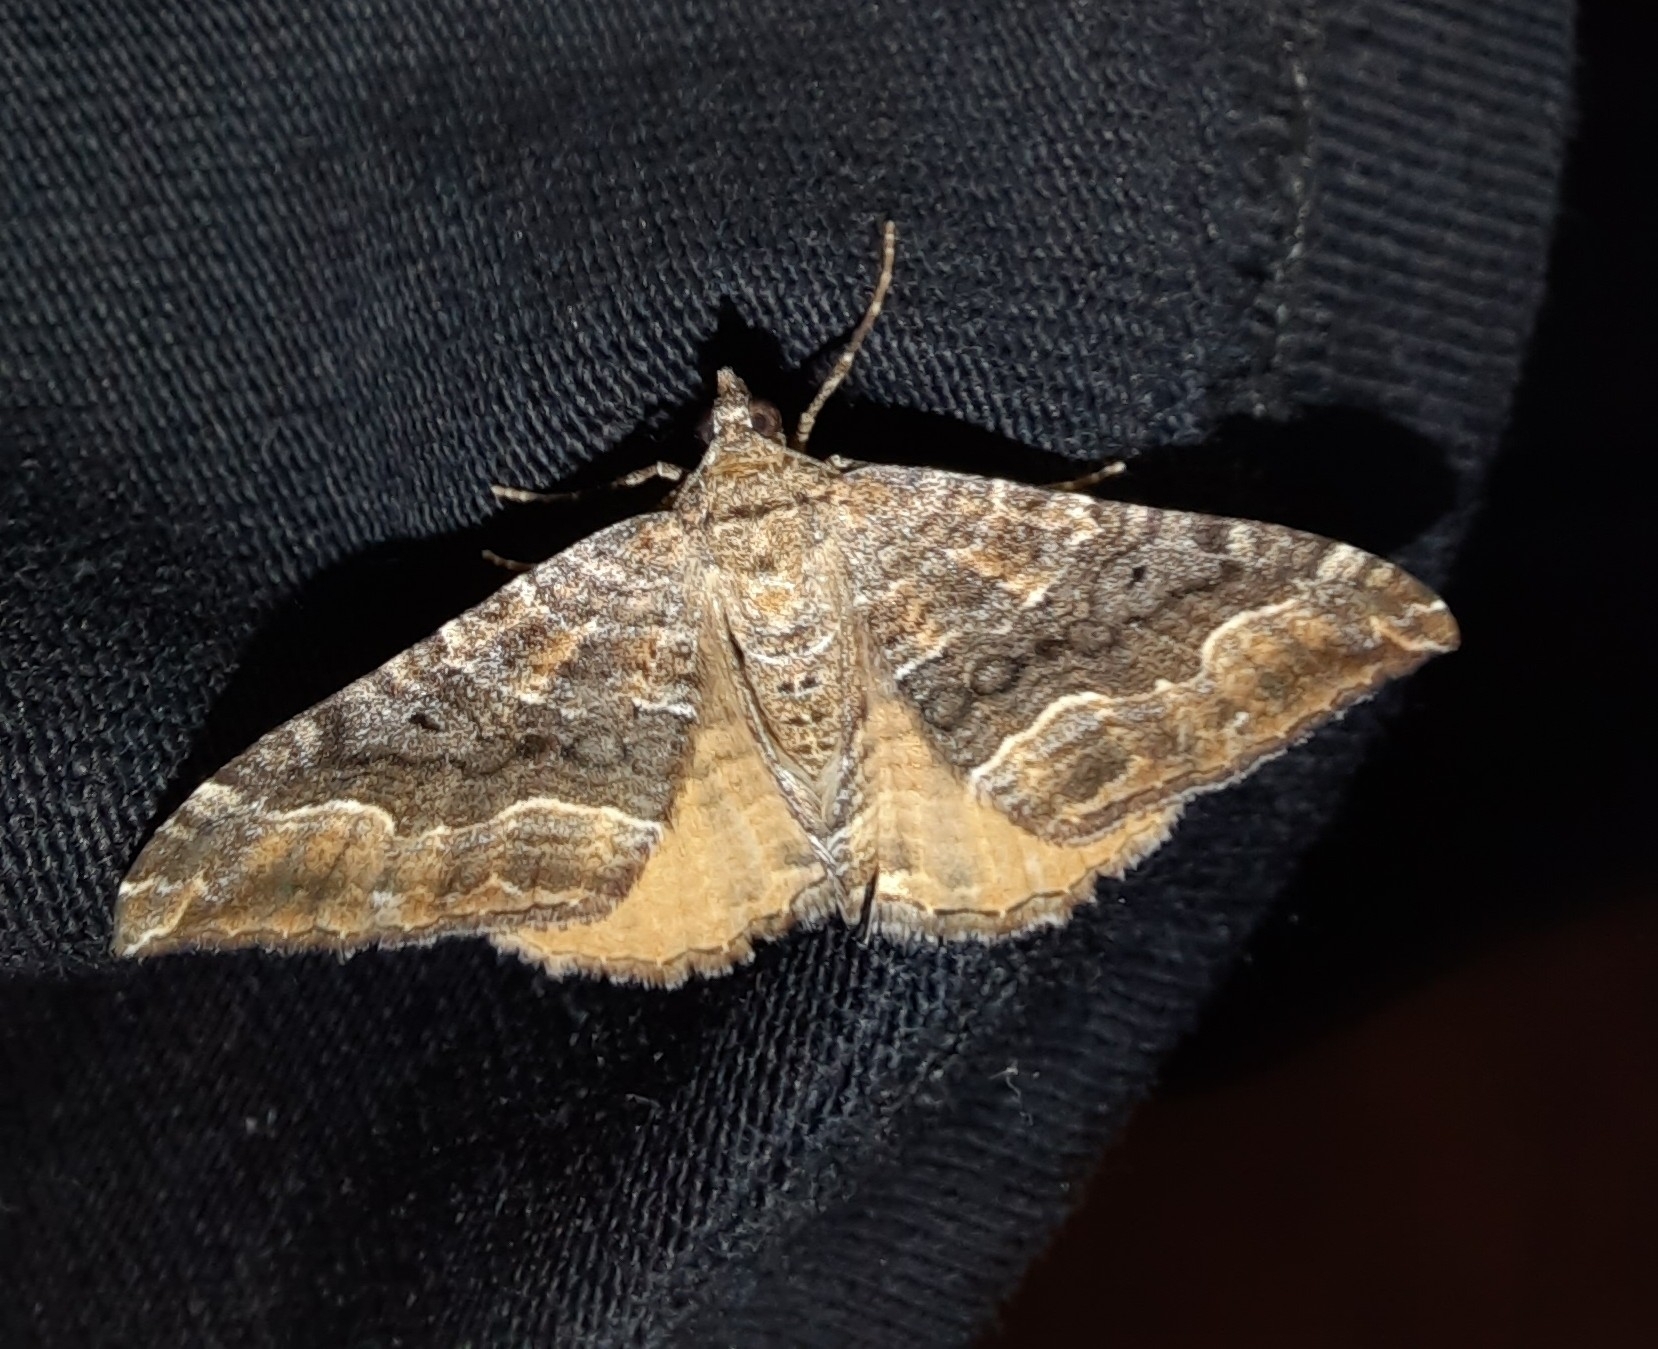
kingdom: Animalia
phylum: Arthropoda
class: Insecta
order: Lepidoptera
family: Geometridae
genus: Hydriomena
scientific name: Hydriomena deltoidata
